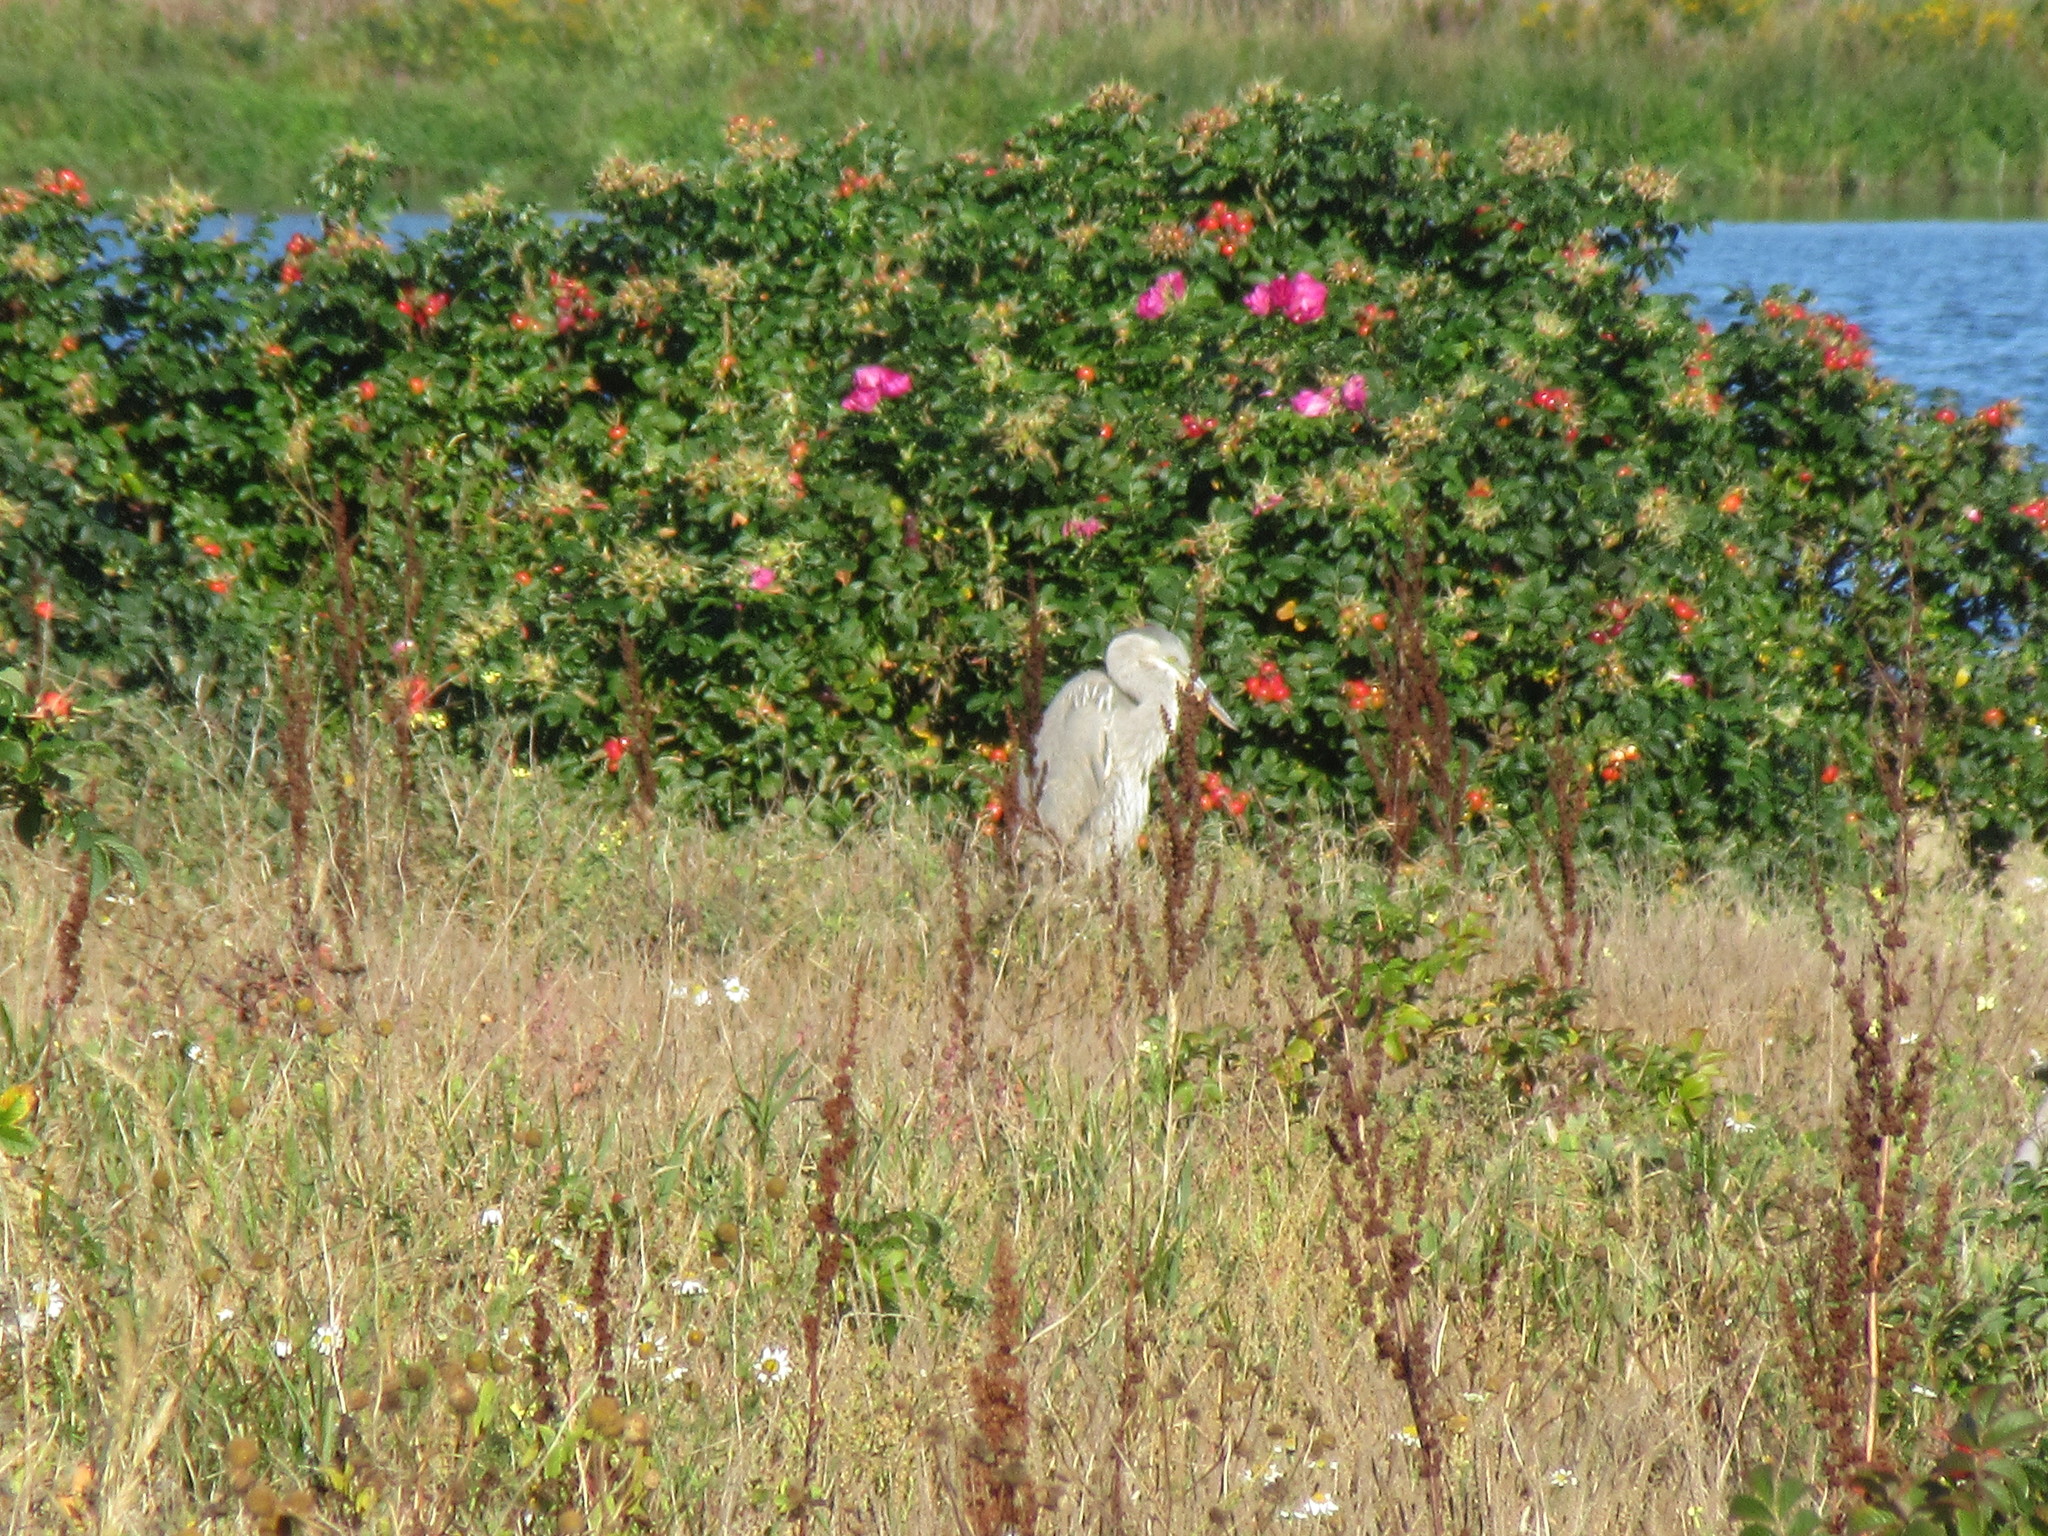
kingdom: Animalia
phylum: Chordata
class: Aves
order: Pelecaniformes
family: Ardeidae
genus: Ardea
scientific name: Ardea herodias
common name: Great blue heron
